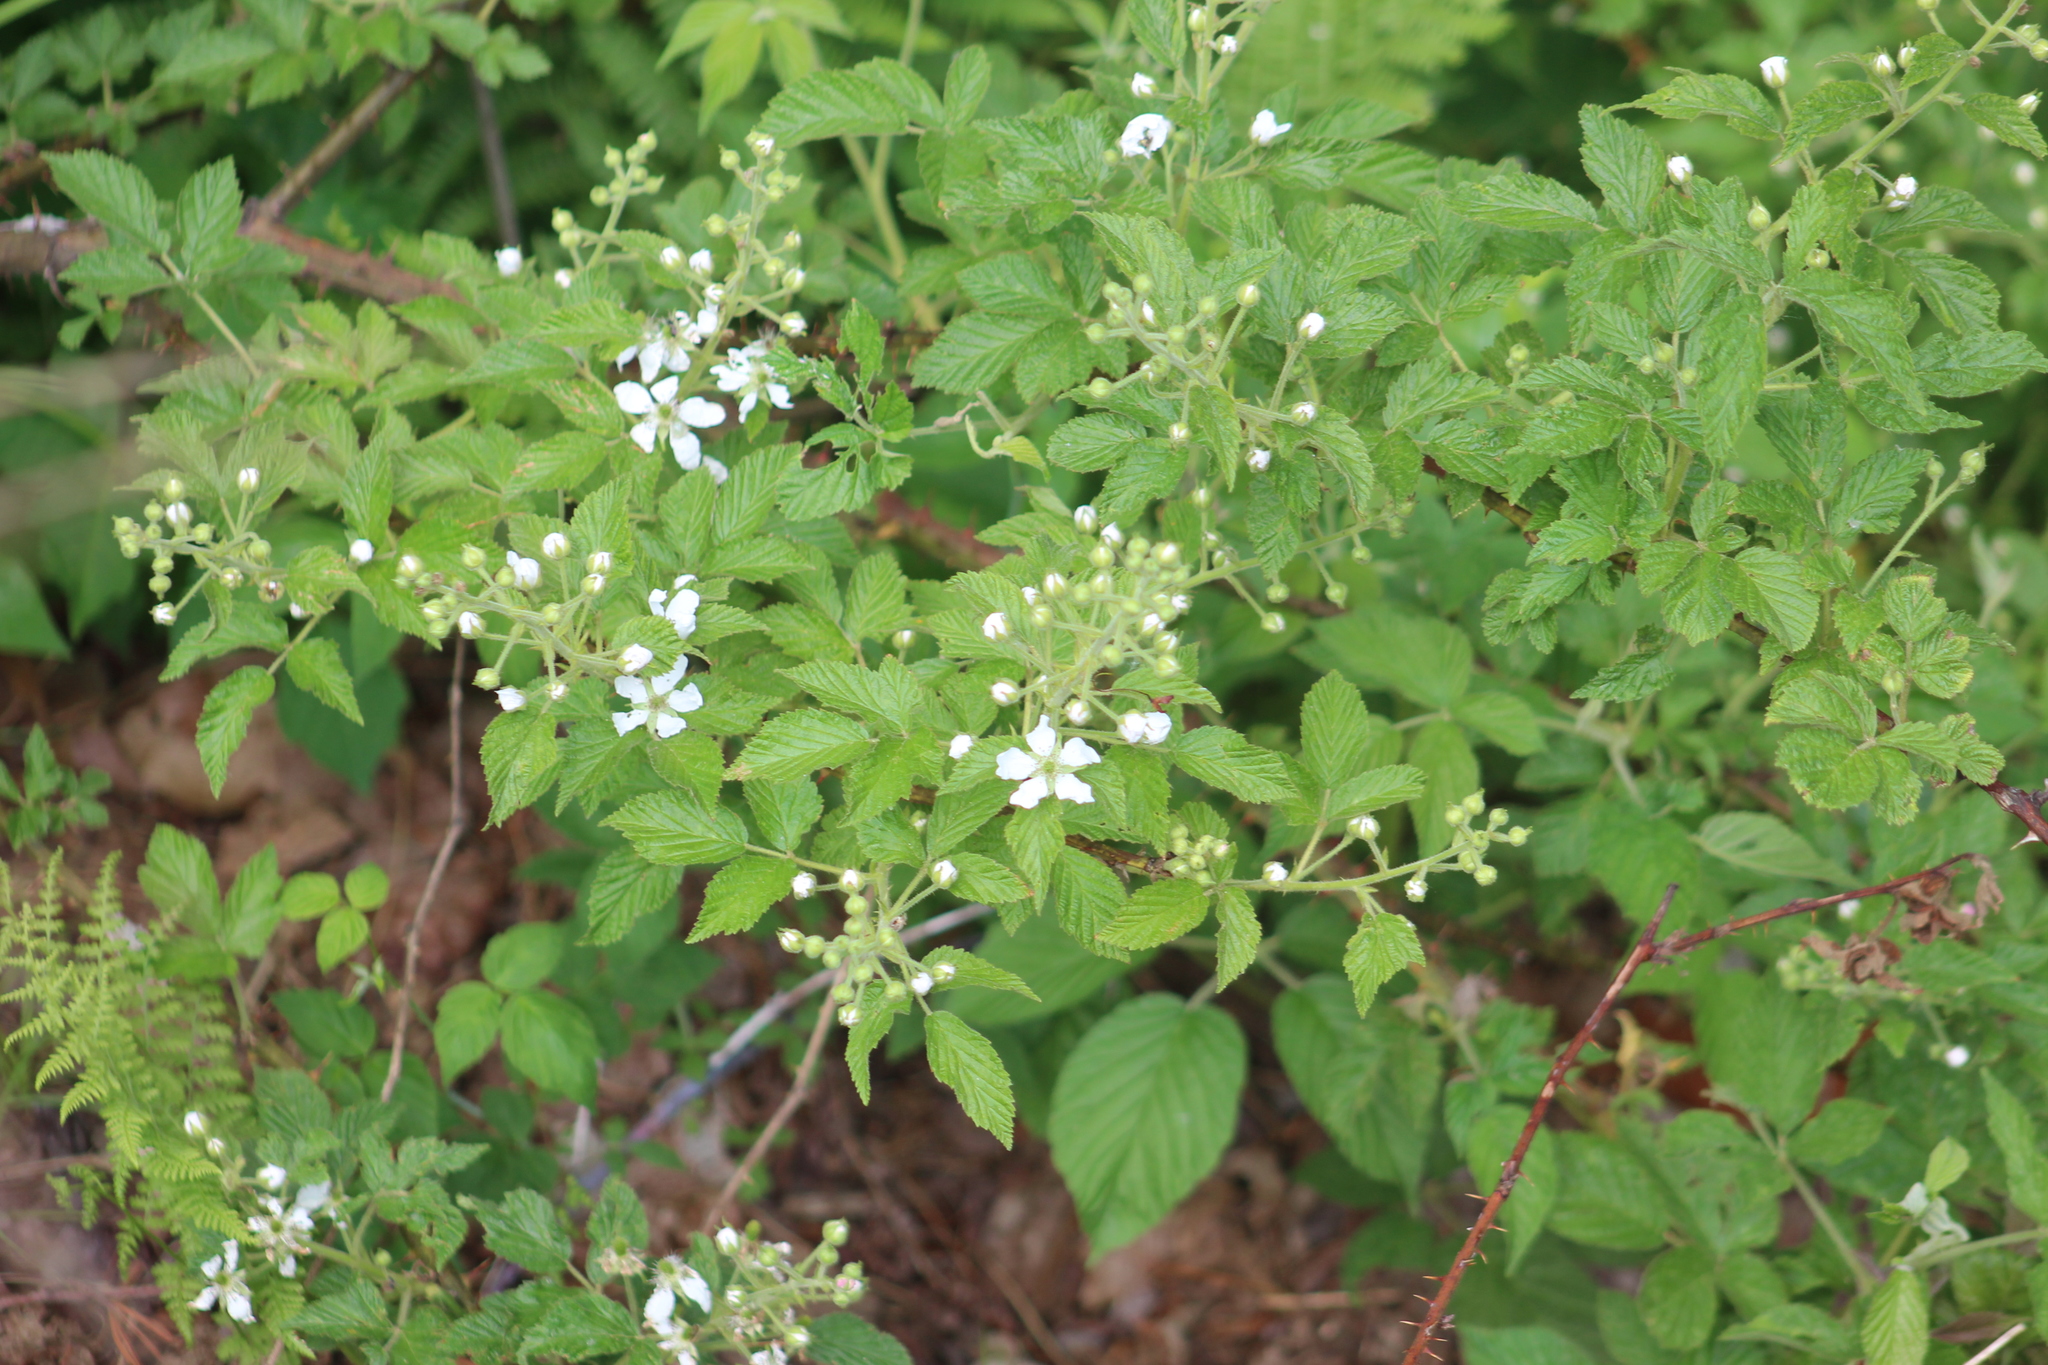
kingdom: Plantae
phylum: Tracheophyta
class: Magnoliopsida
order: Rosales
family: Rosaceae
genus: Rubus
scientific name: Rubus allegheniensis
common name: Allegheny blackberry
